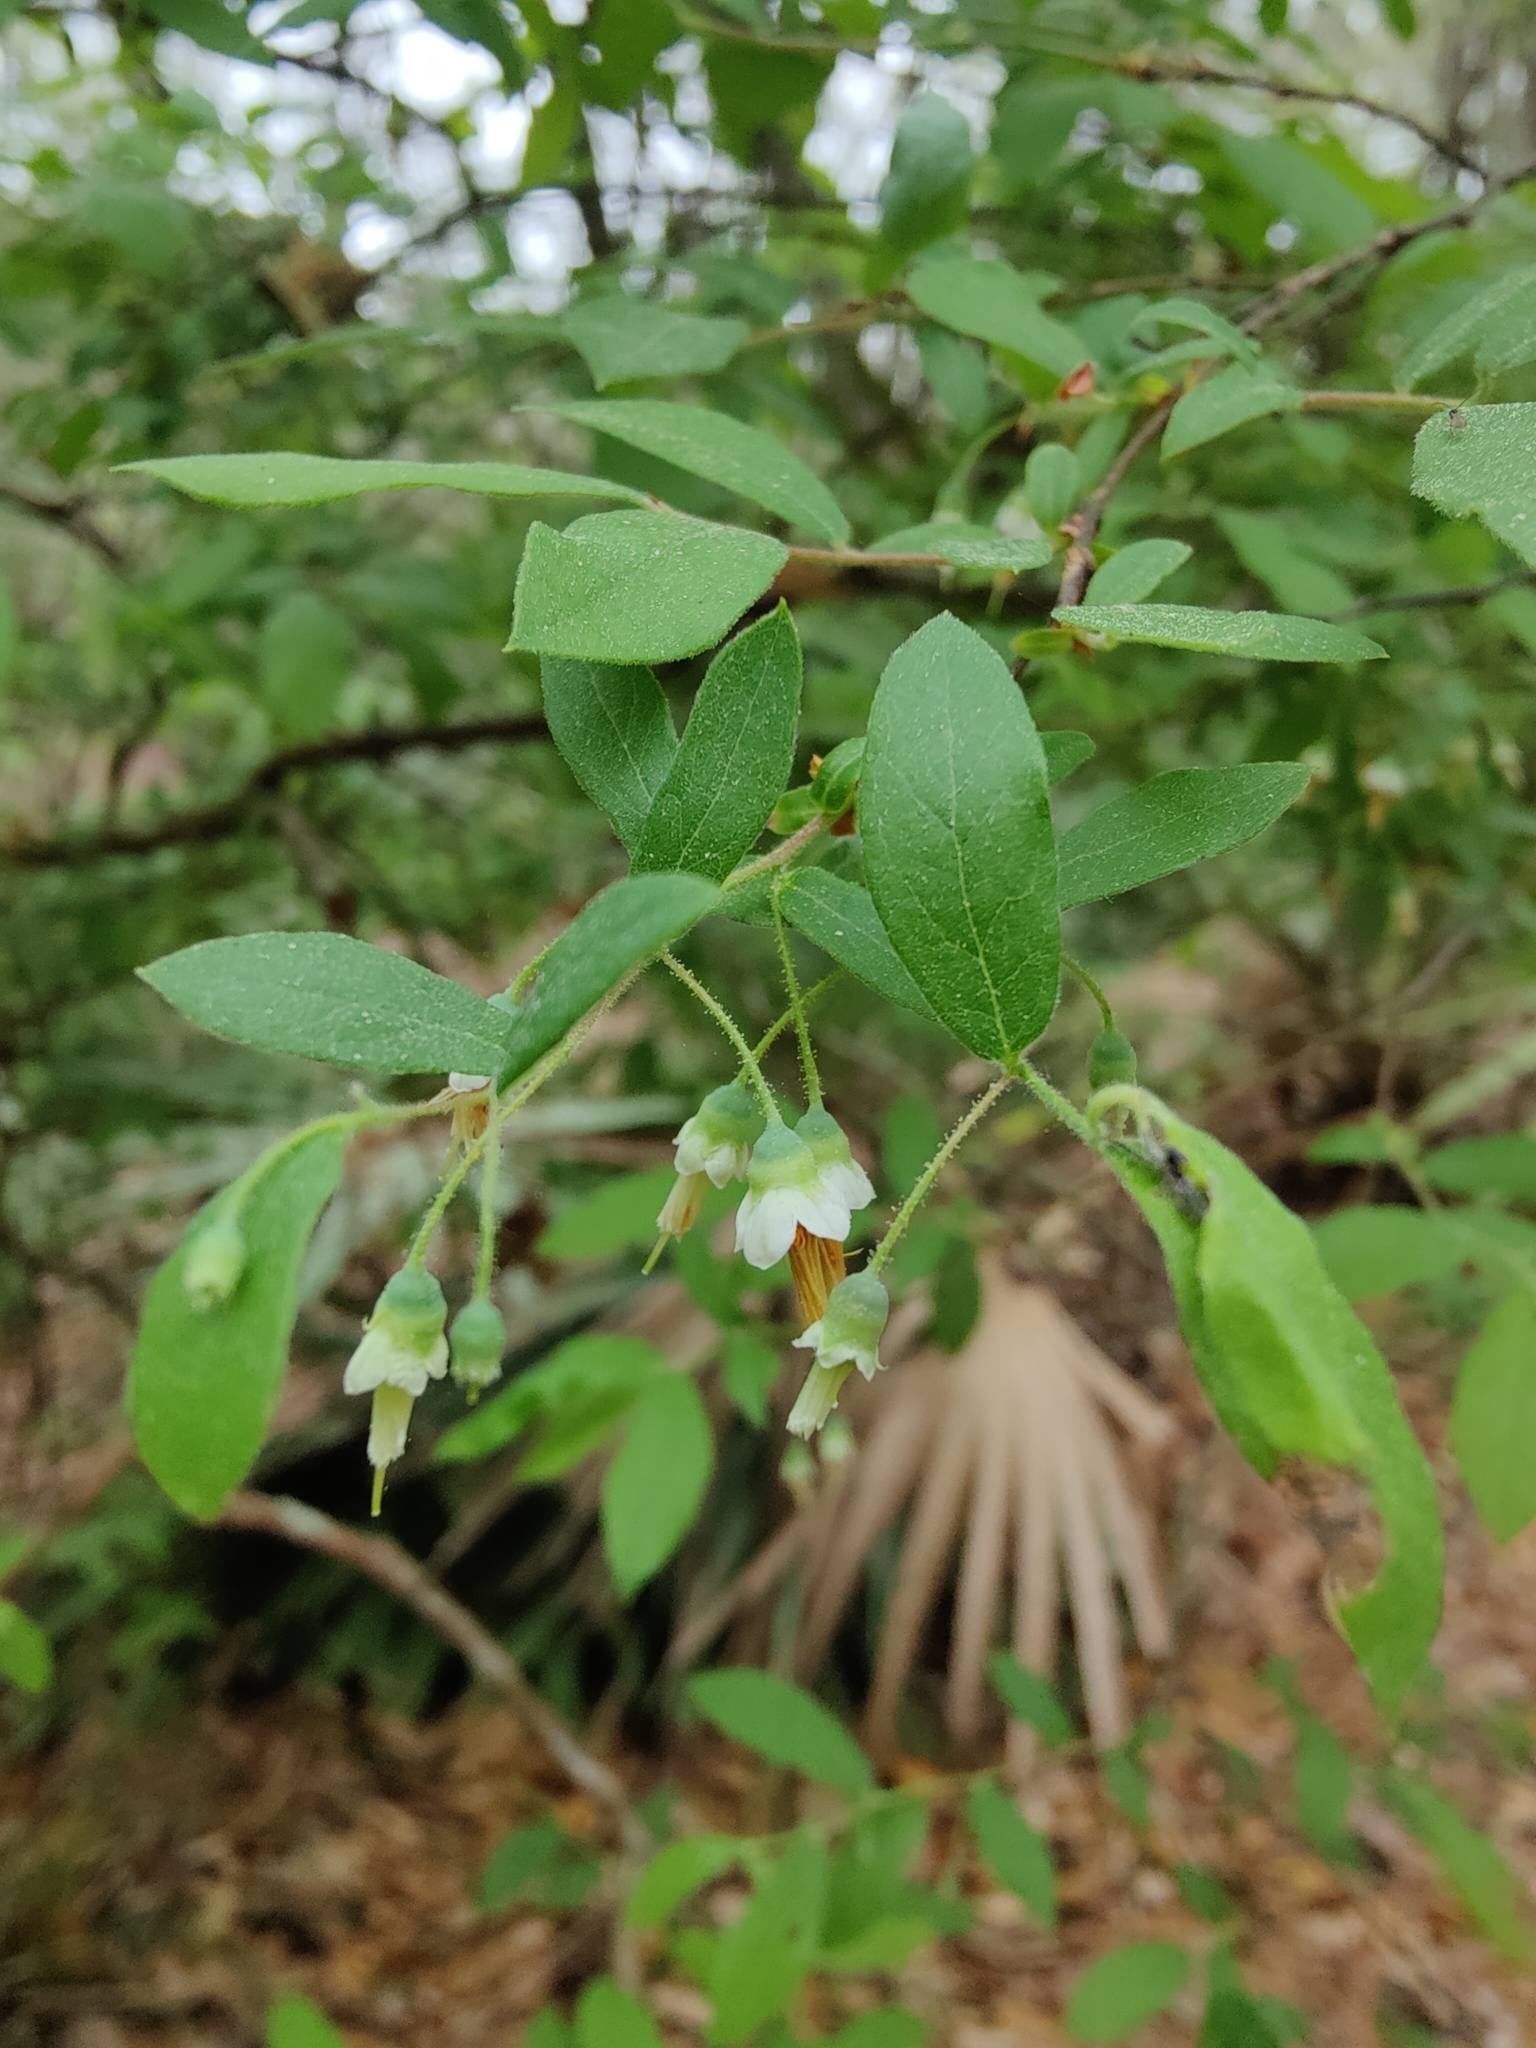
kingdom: Plantae
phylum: Tracheophyta
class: Magnoliopsida
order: Ericales
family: Ericaceae
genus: Vaccinium
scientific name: Vaccinium stamineum
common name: Deerberry
